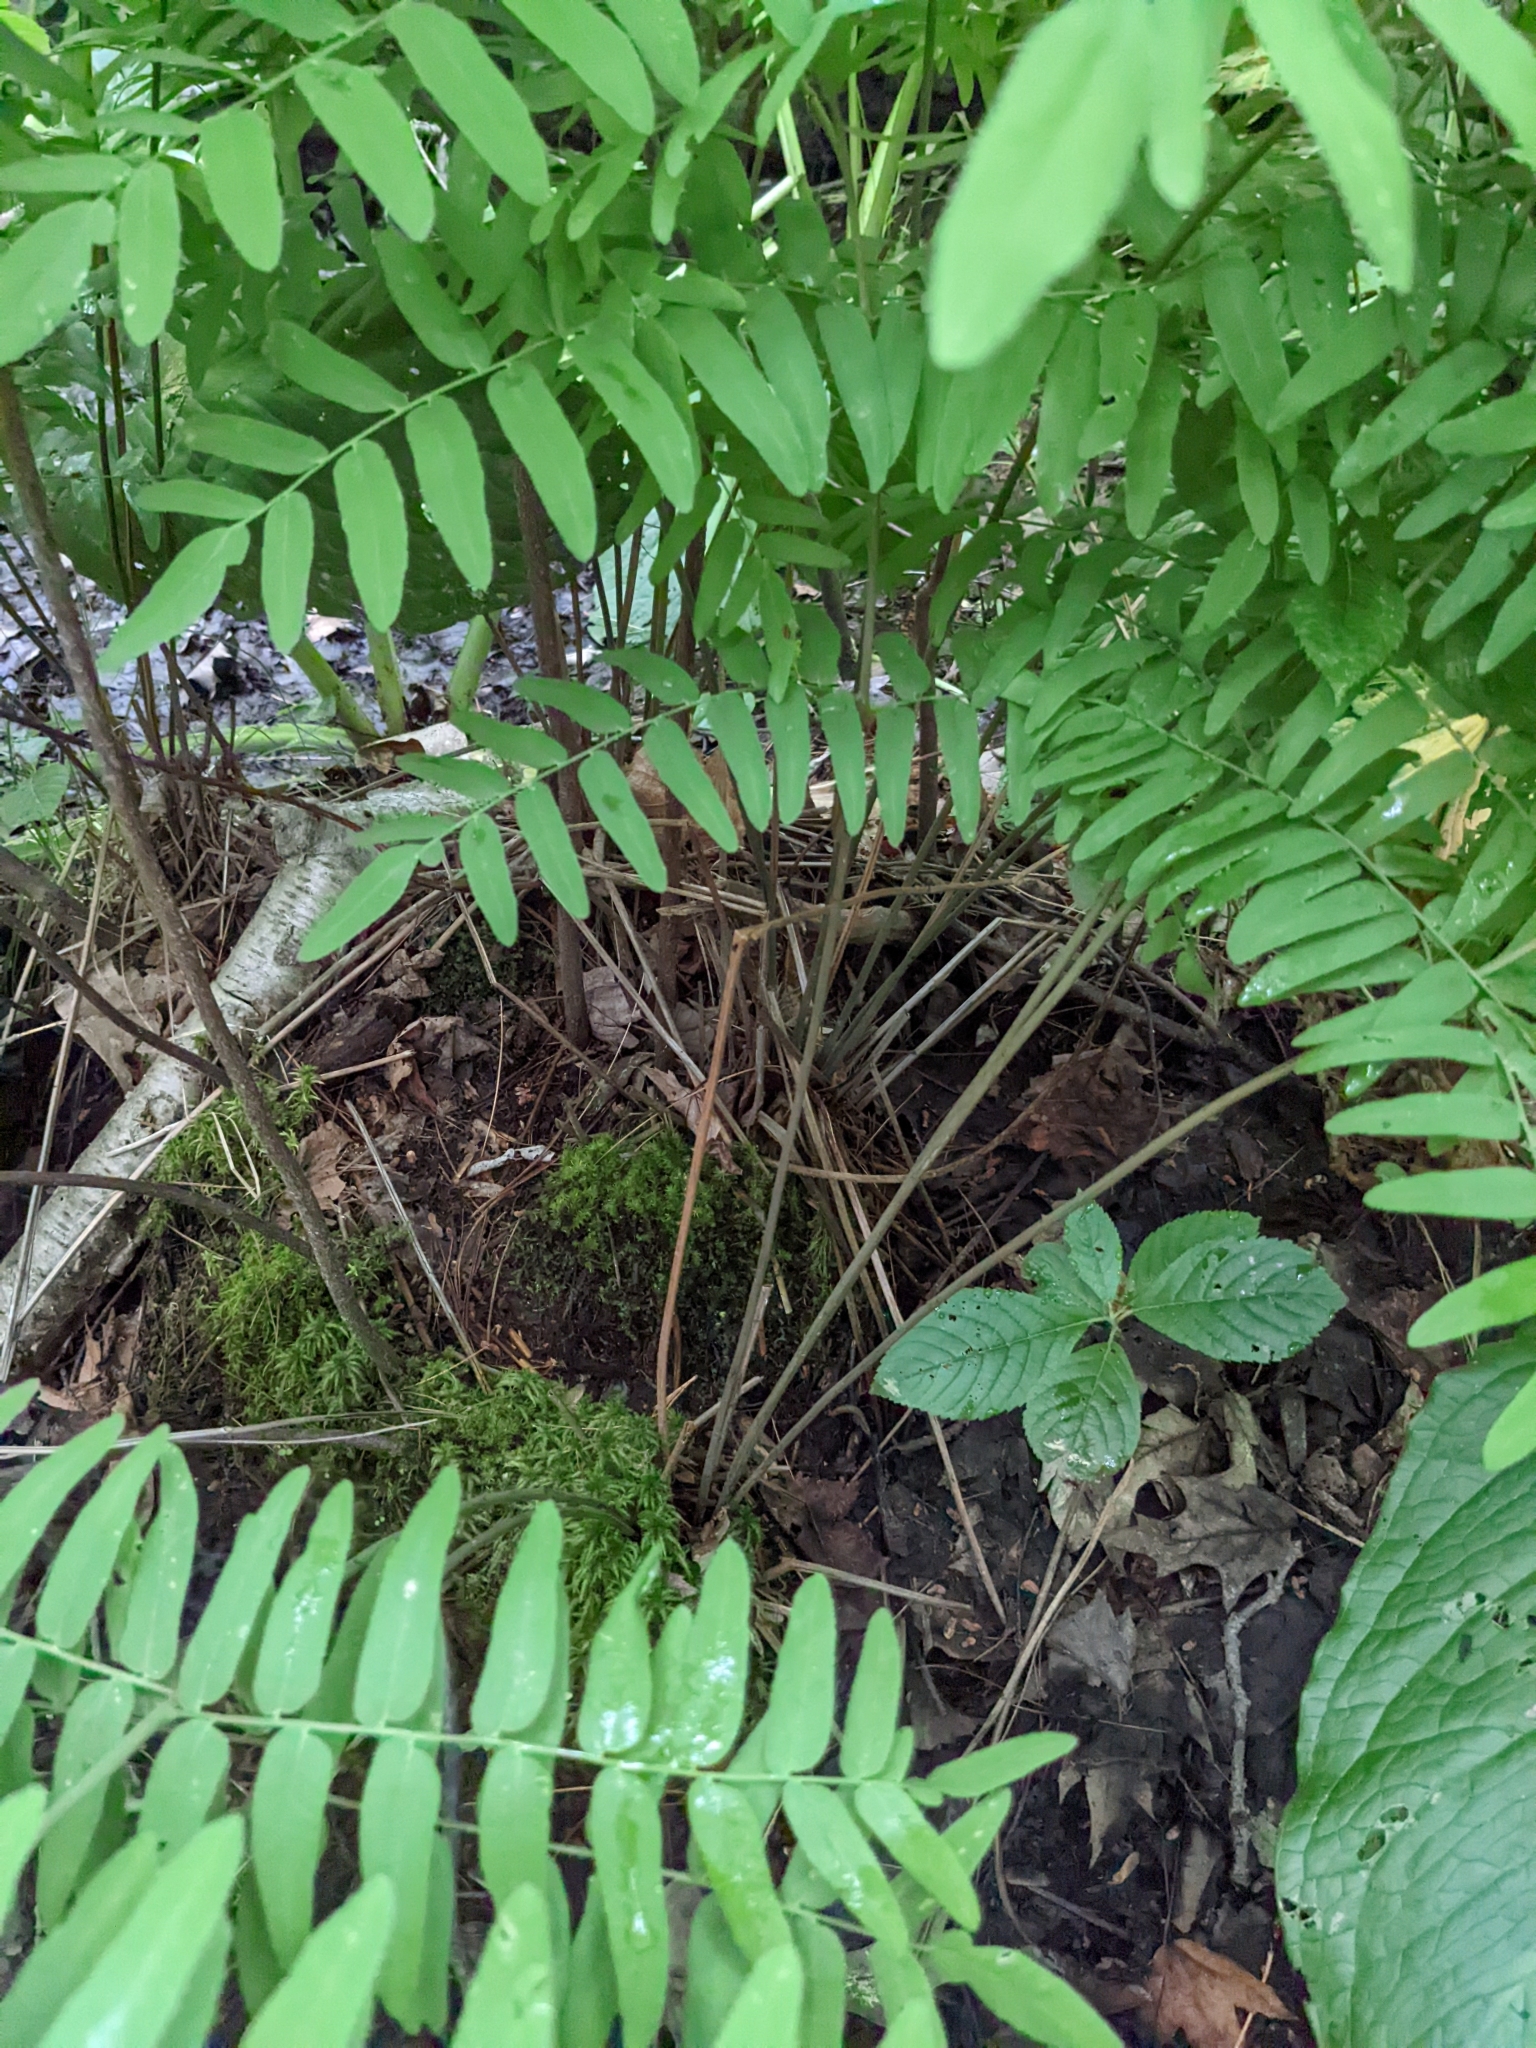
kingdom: Plantae
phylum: Tracheophyta
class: Polypodiopsida
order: Osmundales
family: Osmundaceae
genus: Osmunda
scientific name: Osmunda spectabilis
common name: American royal fern
